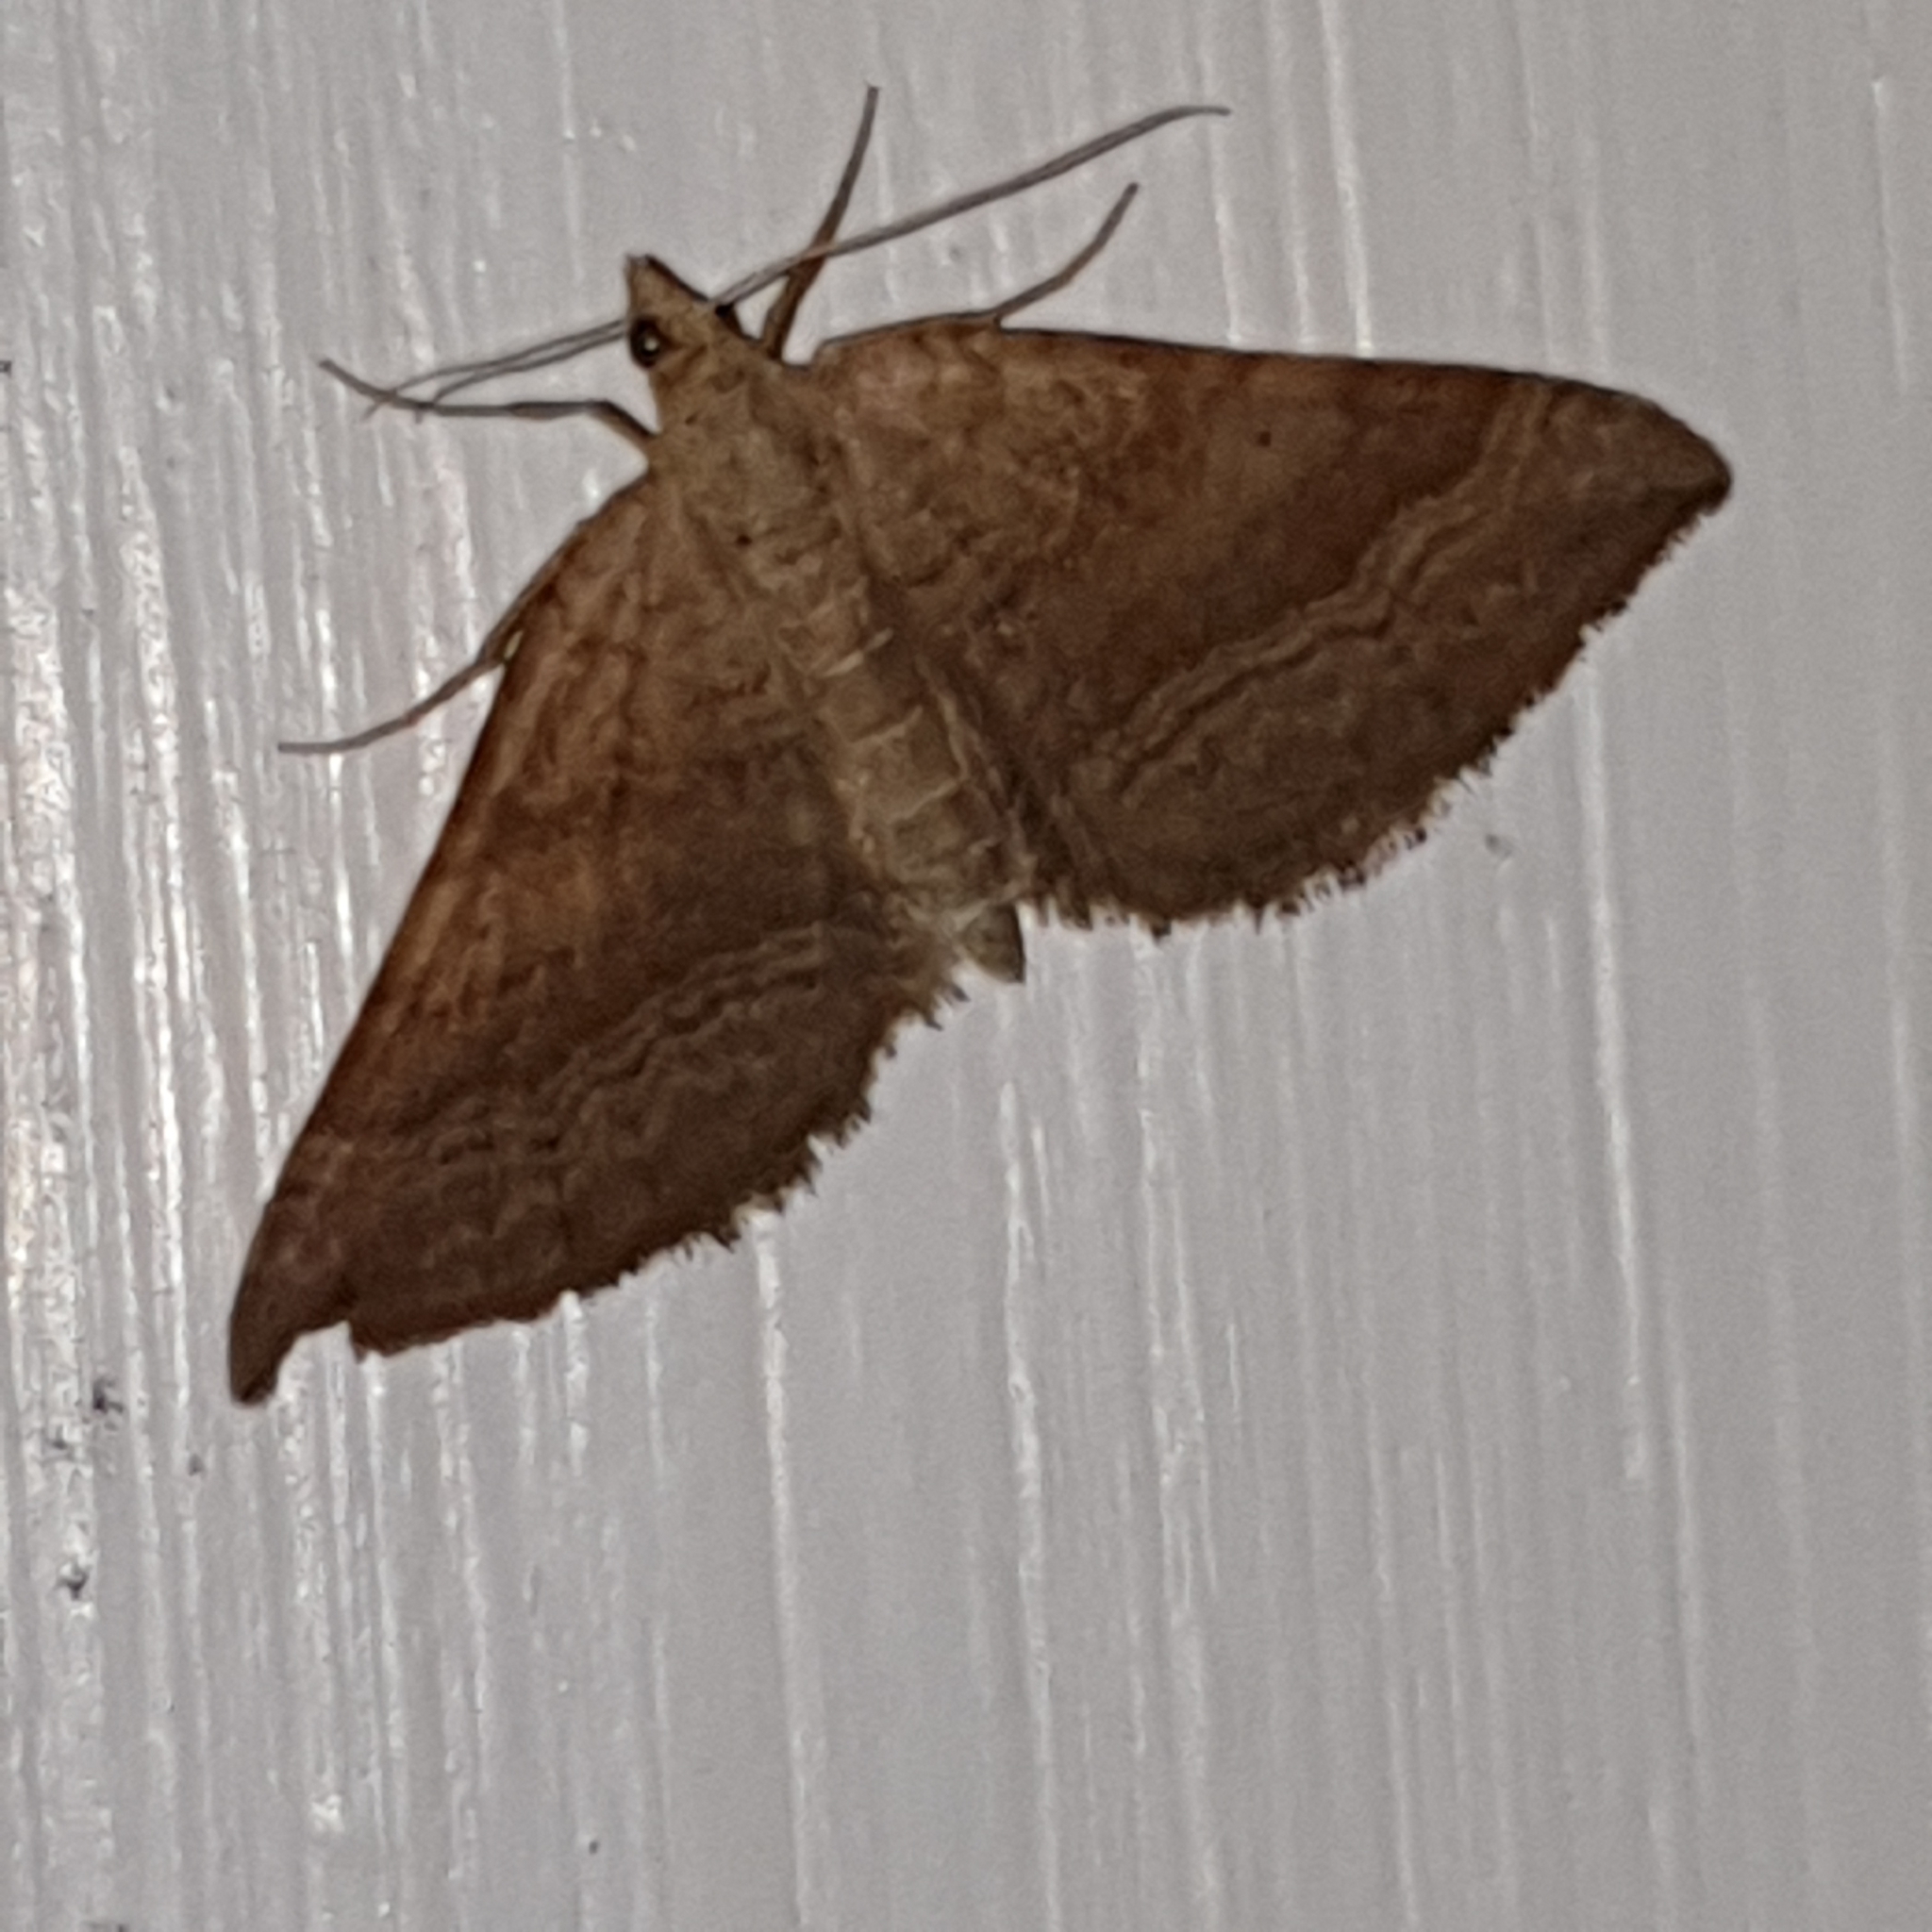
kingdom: Animalia
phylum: Arthropoda
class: Insecta
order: Lepidoptera
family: Geometridae
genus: Scotopteryx
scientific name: Scotopteryx chenopodiata
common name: Shaded broad-bar
